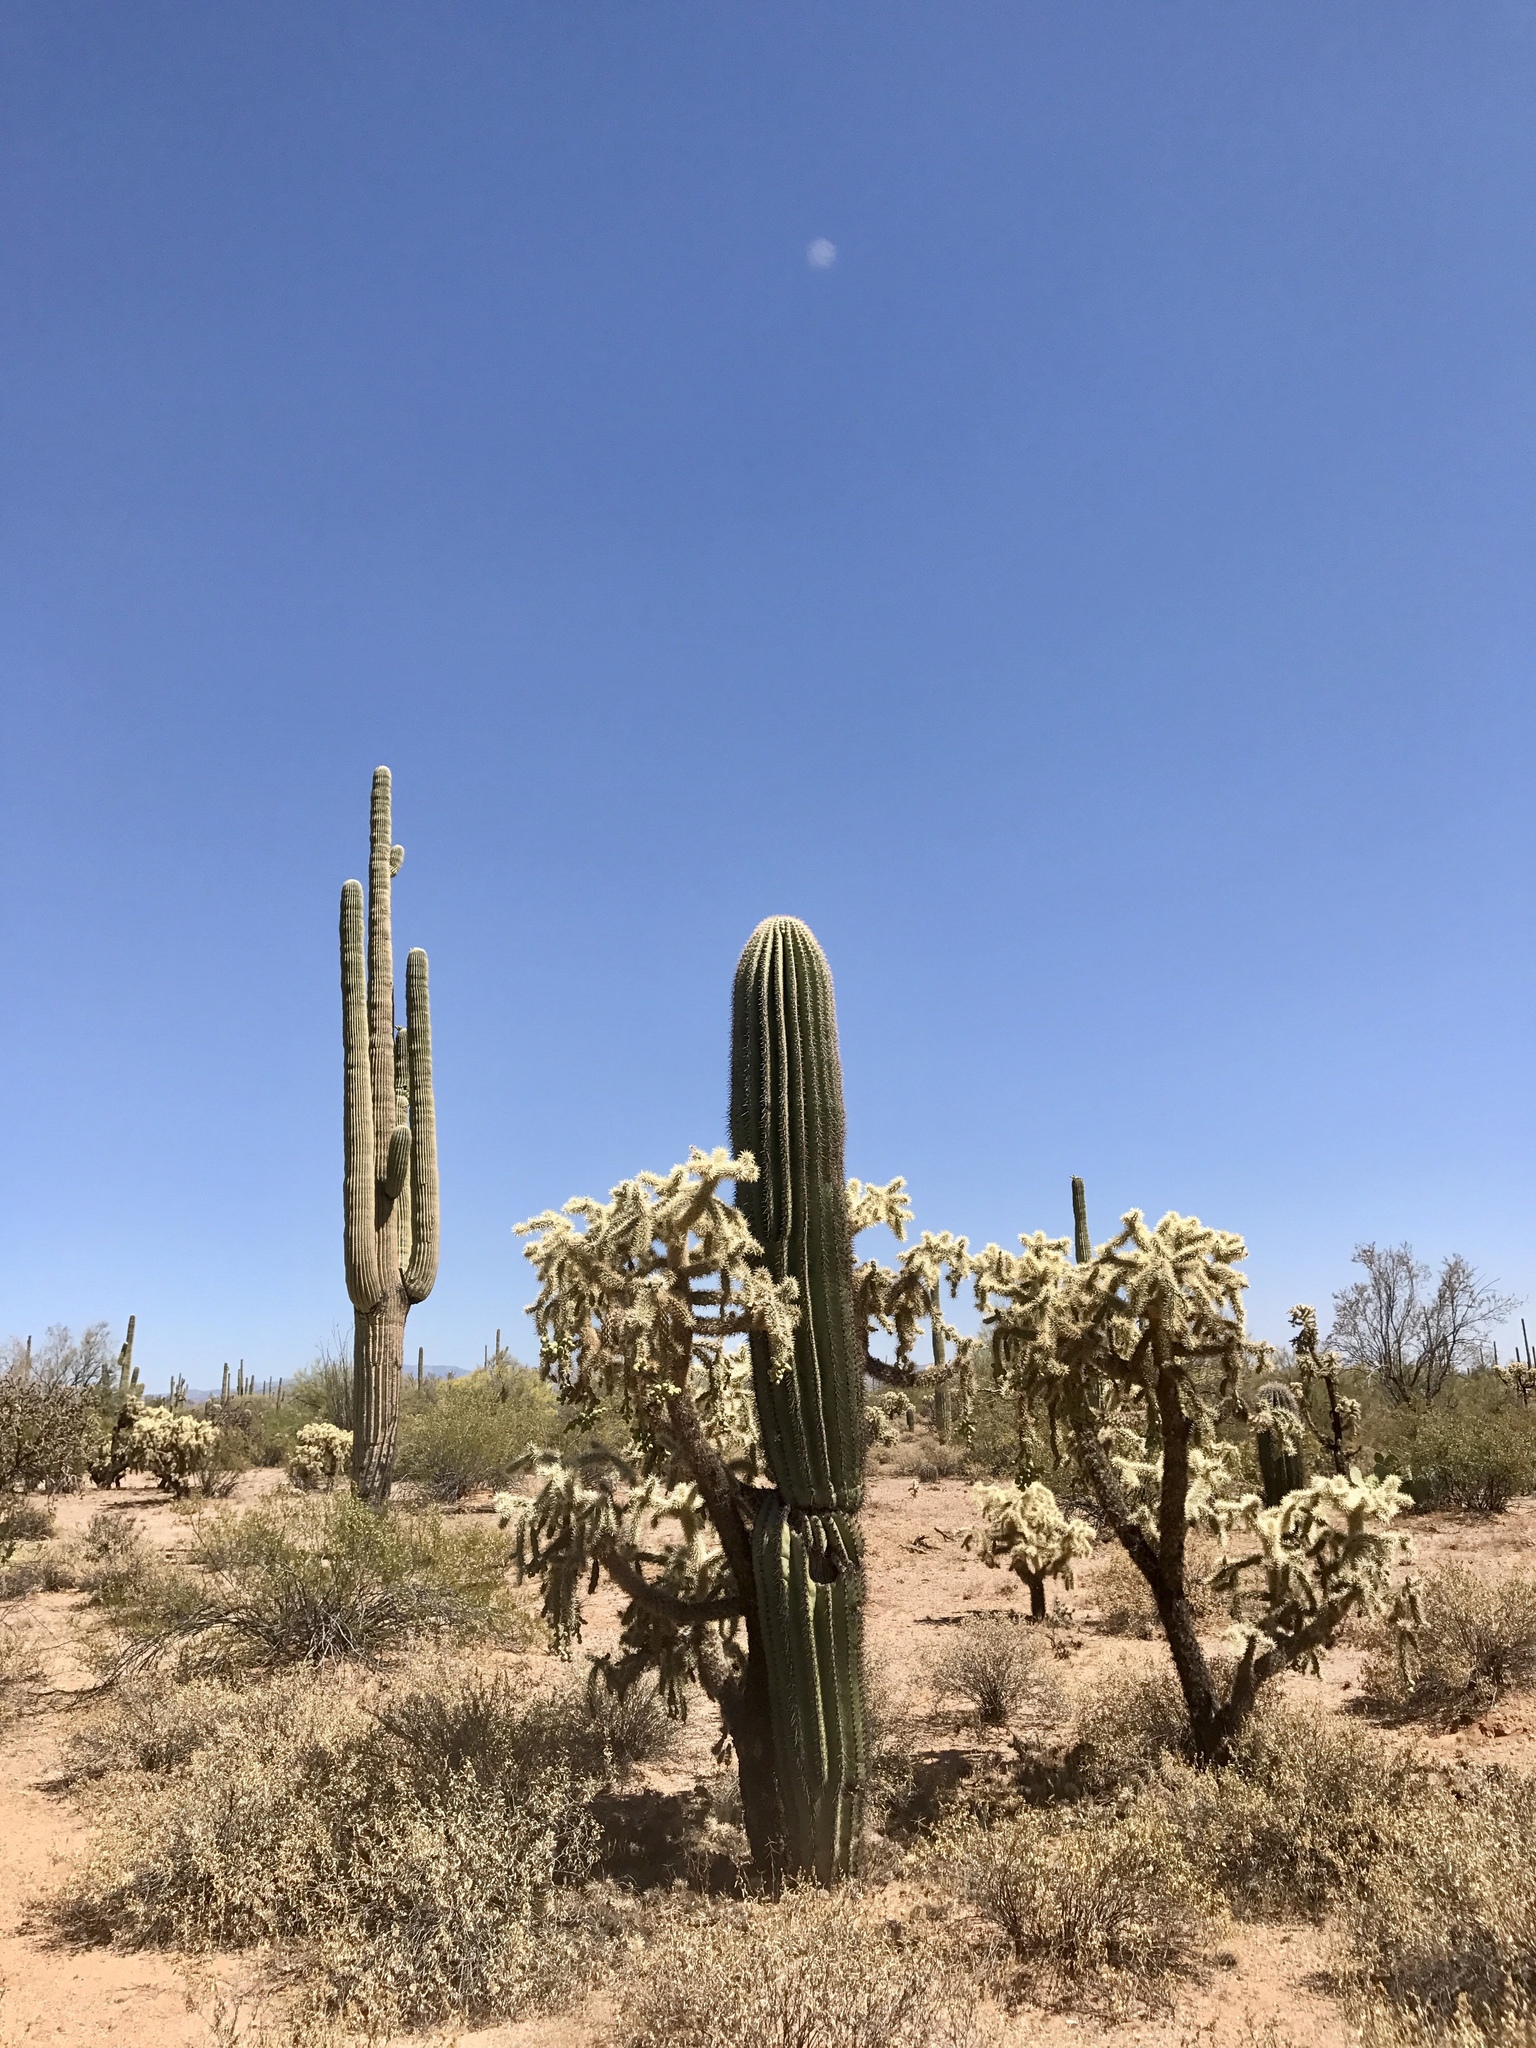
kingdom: Plantae
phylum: Tracheophyta
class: Magnoliopsida
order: Caryophyllales
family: Cactaceae
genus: Cylindropuntia
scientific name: Cylindropuntia fulgida
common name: Jumping cholla
